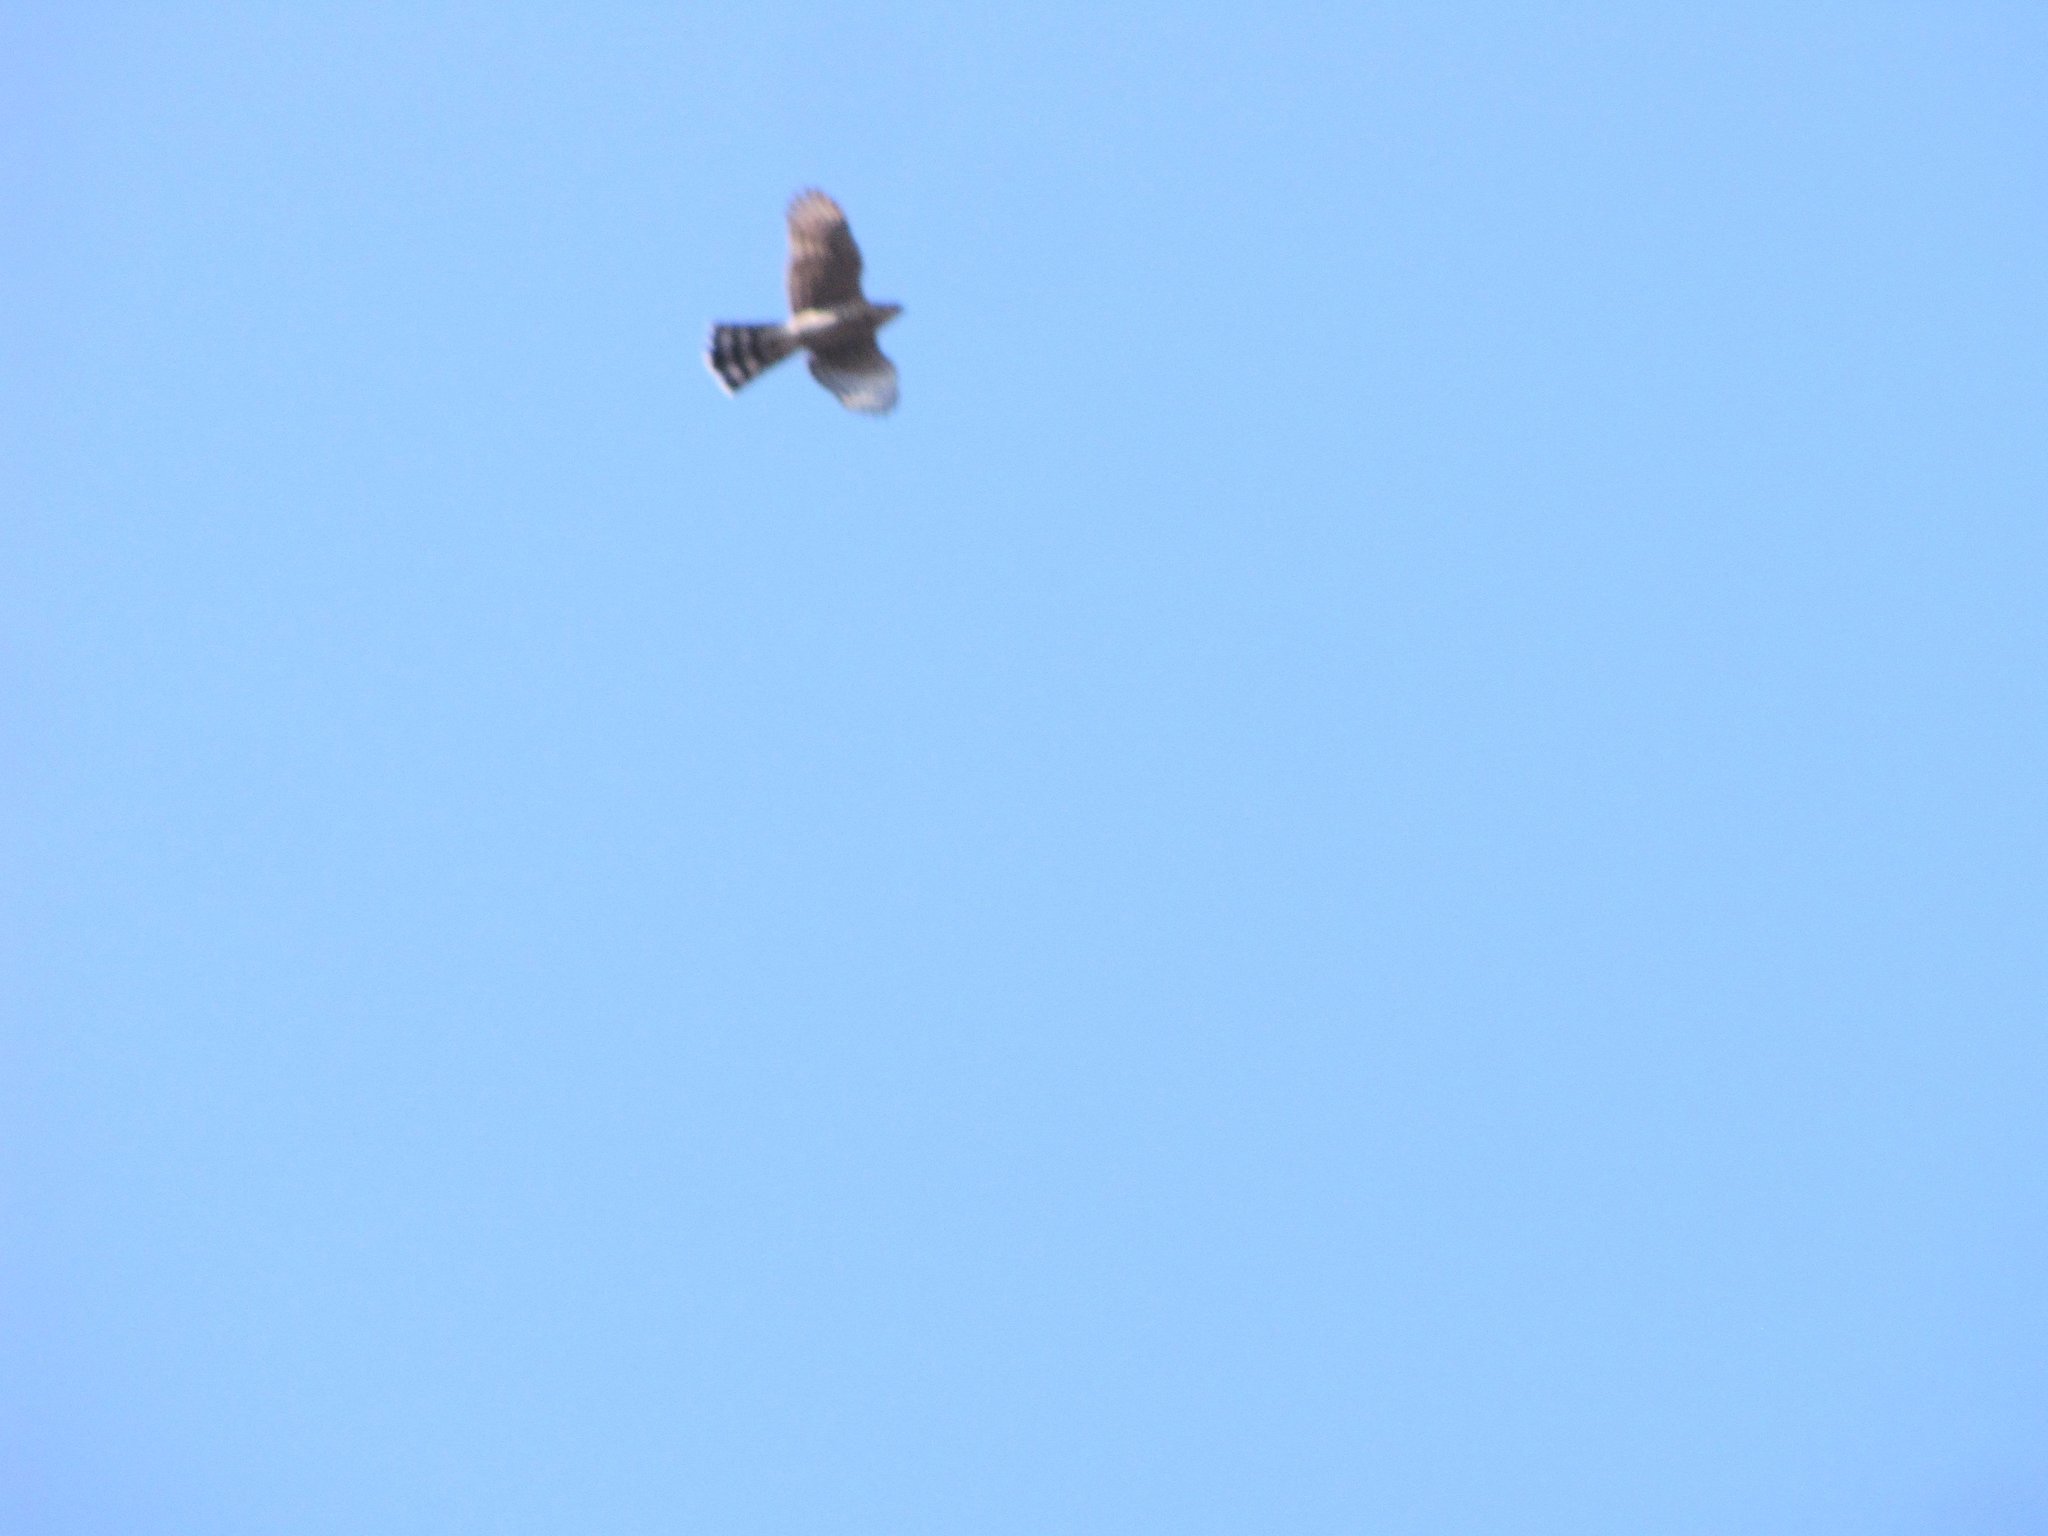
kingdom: Animalia
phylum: Chordata
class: Aves
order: Accipitriformes
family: Accipitridae
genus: Accipiter
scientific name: Accipiter cooperii
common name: Cooper's hawk
